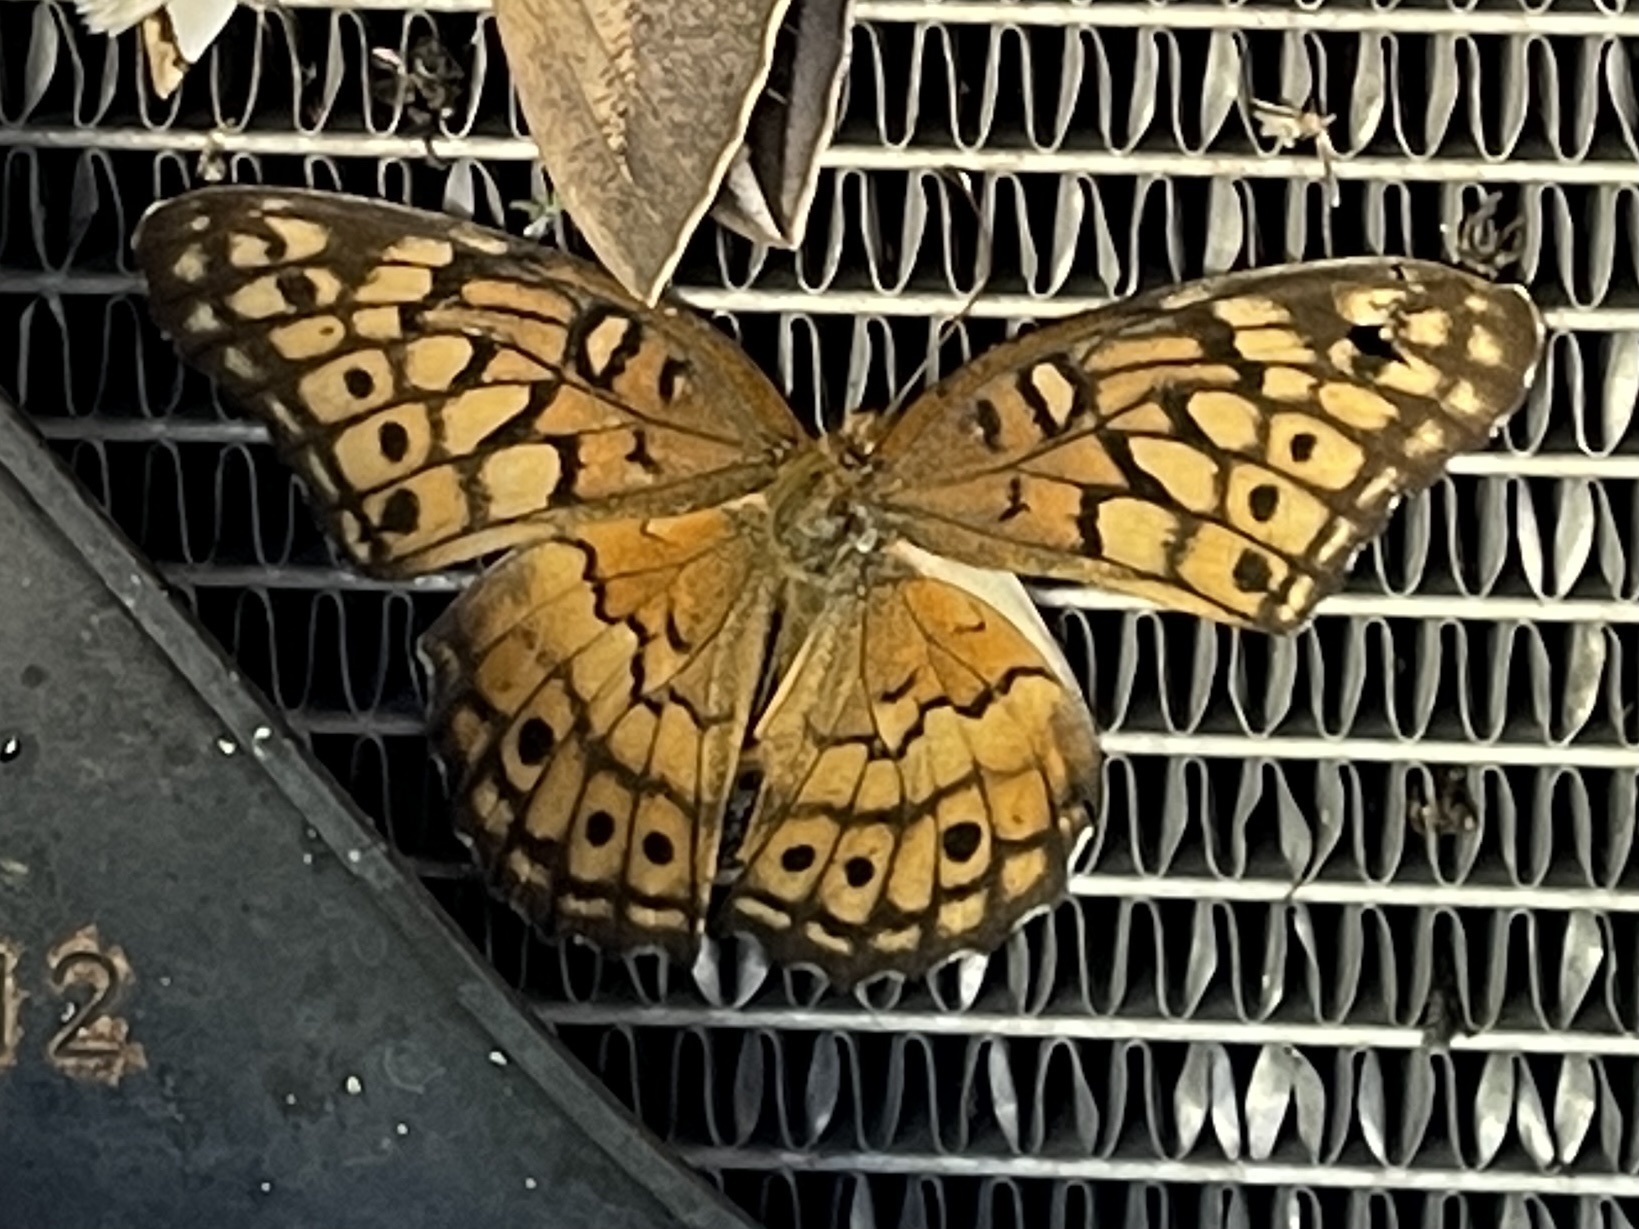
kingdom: Animalia
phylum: Arthropoda
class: Insecta
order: Lepidoptera
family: Nymphalidae
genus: Euptoieta
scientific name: Euptoieta claudia
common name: Variegated fritillary
